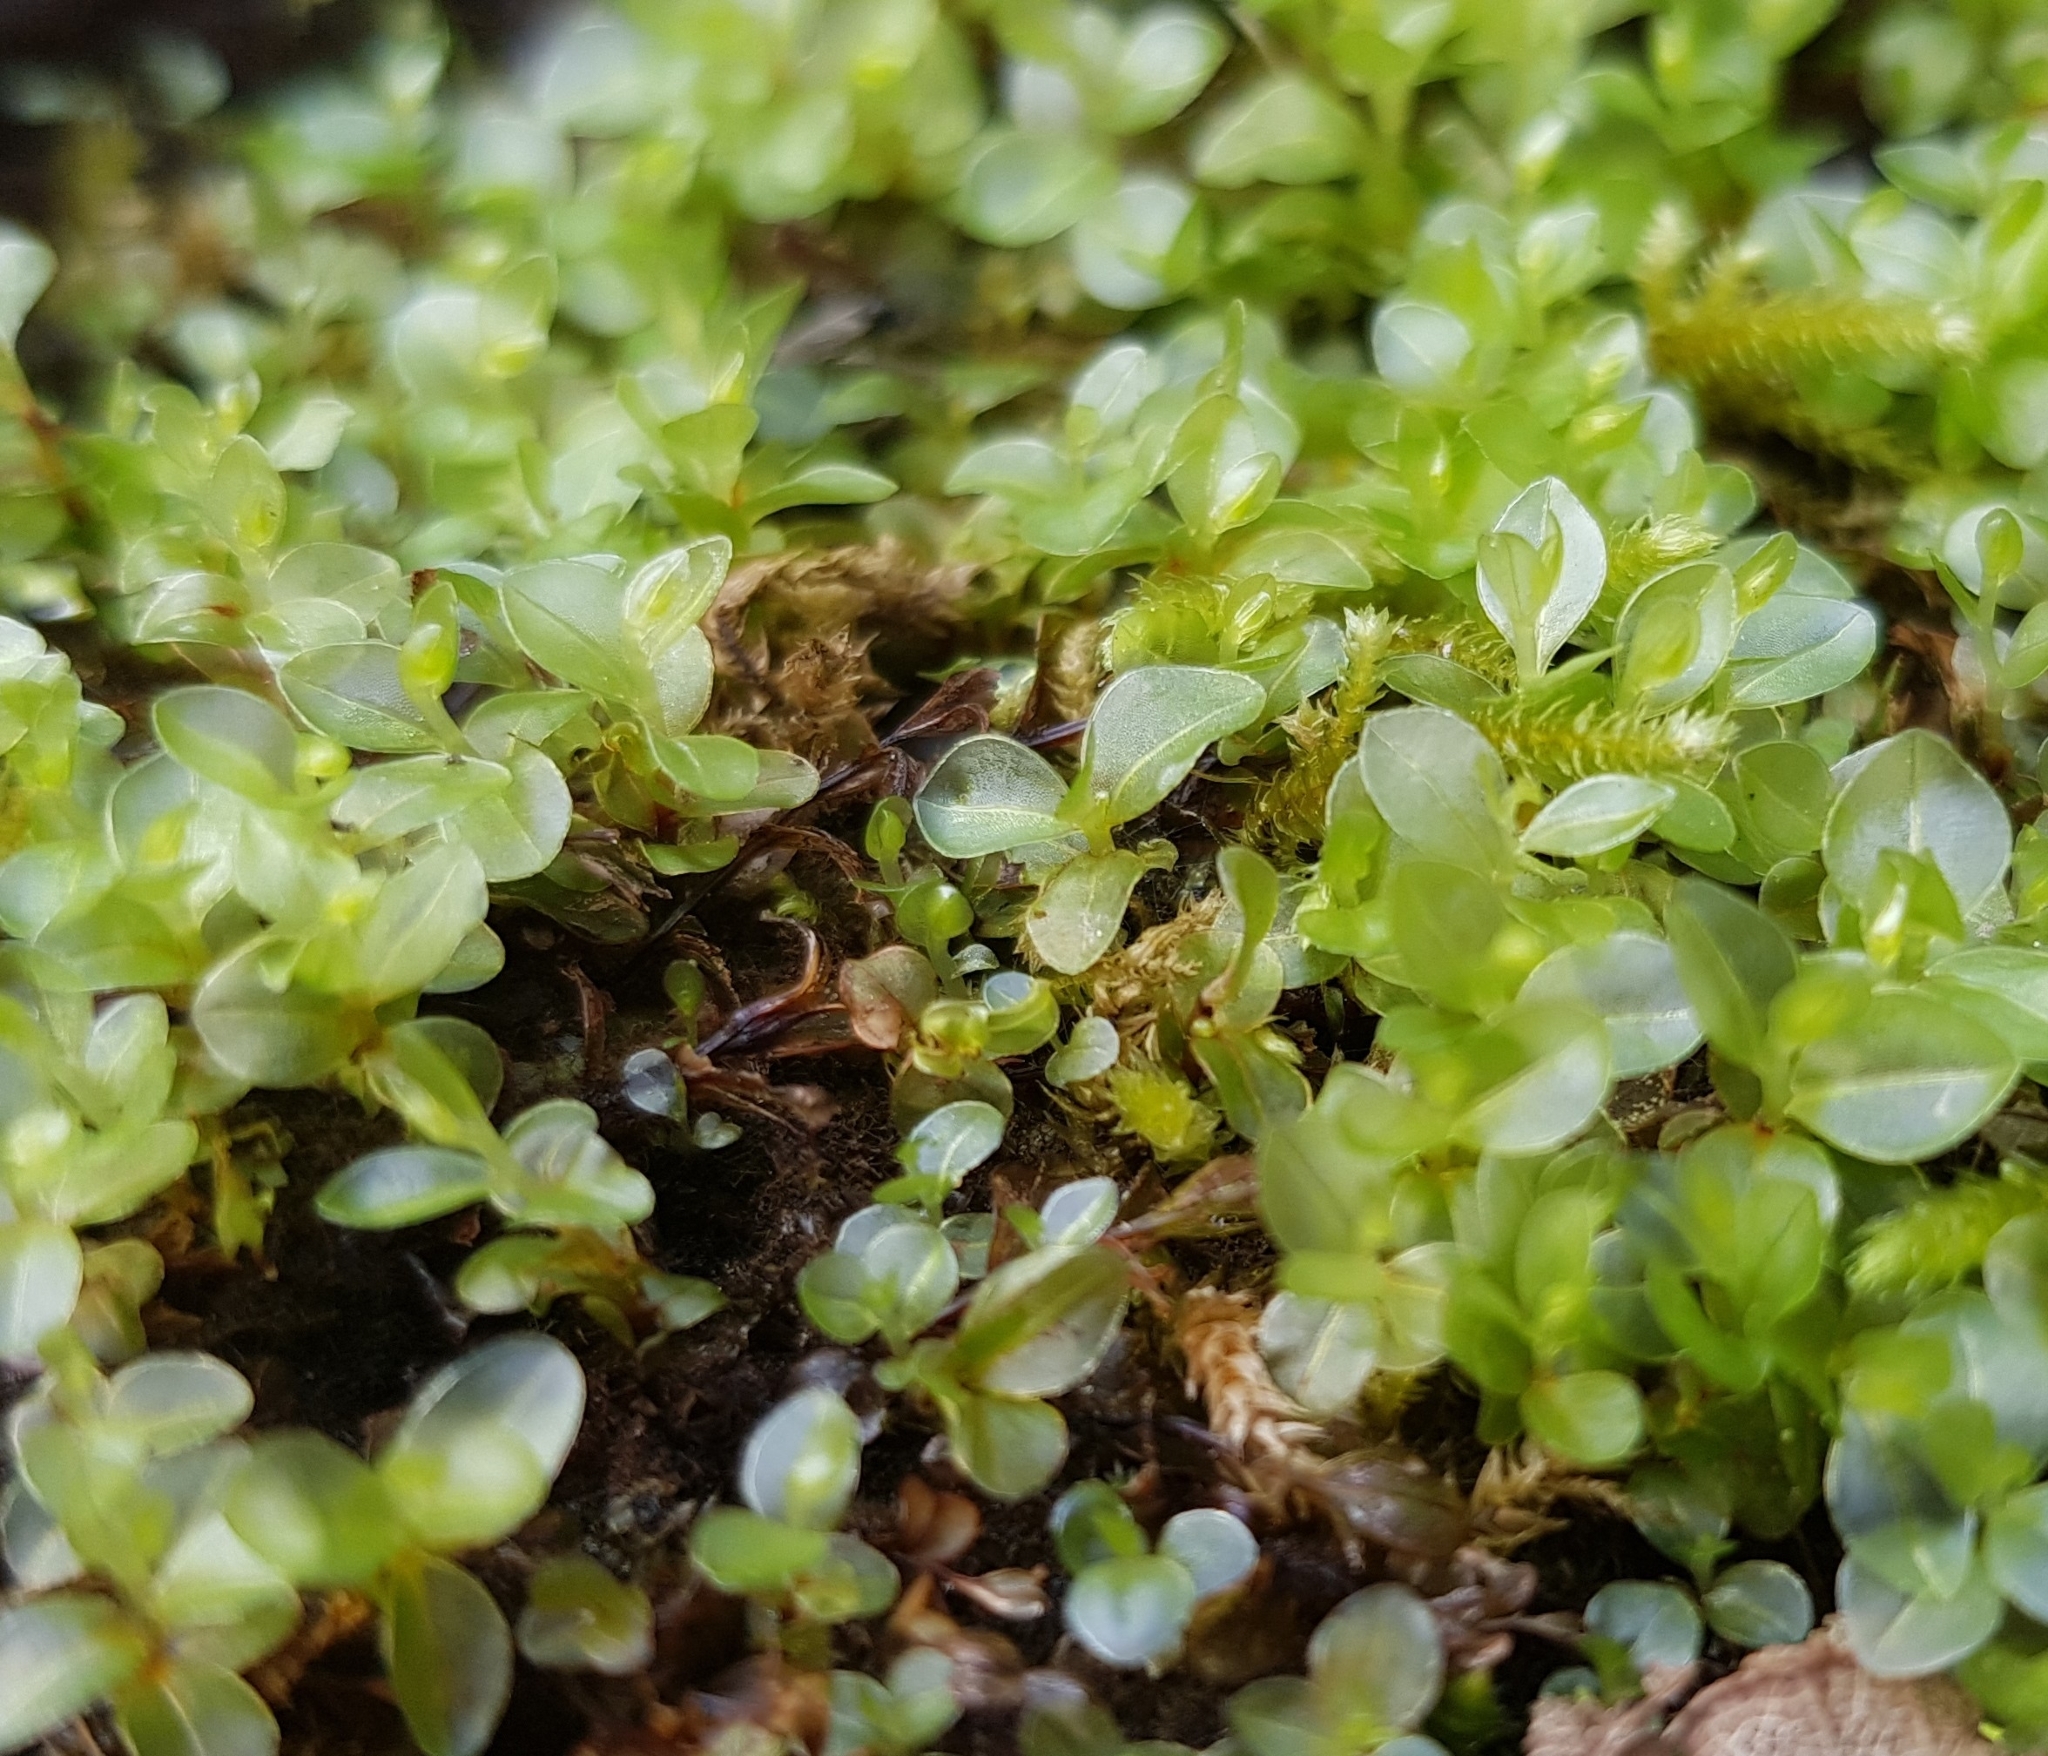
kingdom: Plantae
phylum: Bryophyta
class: Bryopsida
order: Bryales
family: Mniaceae
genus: Rhizomnium
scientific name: Rhizomnium punctatum
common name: Dotted leafy moss
